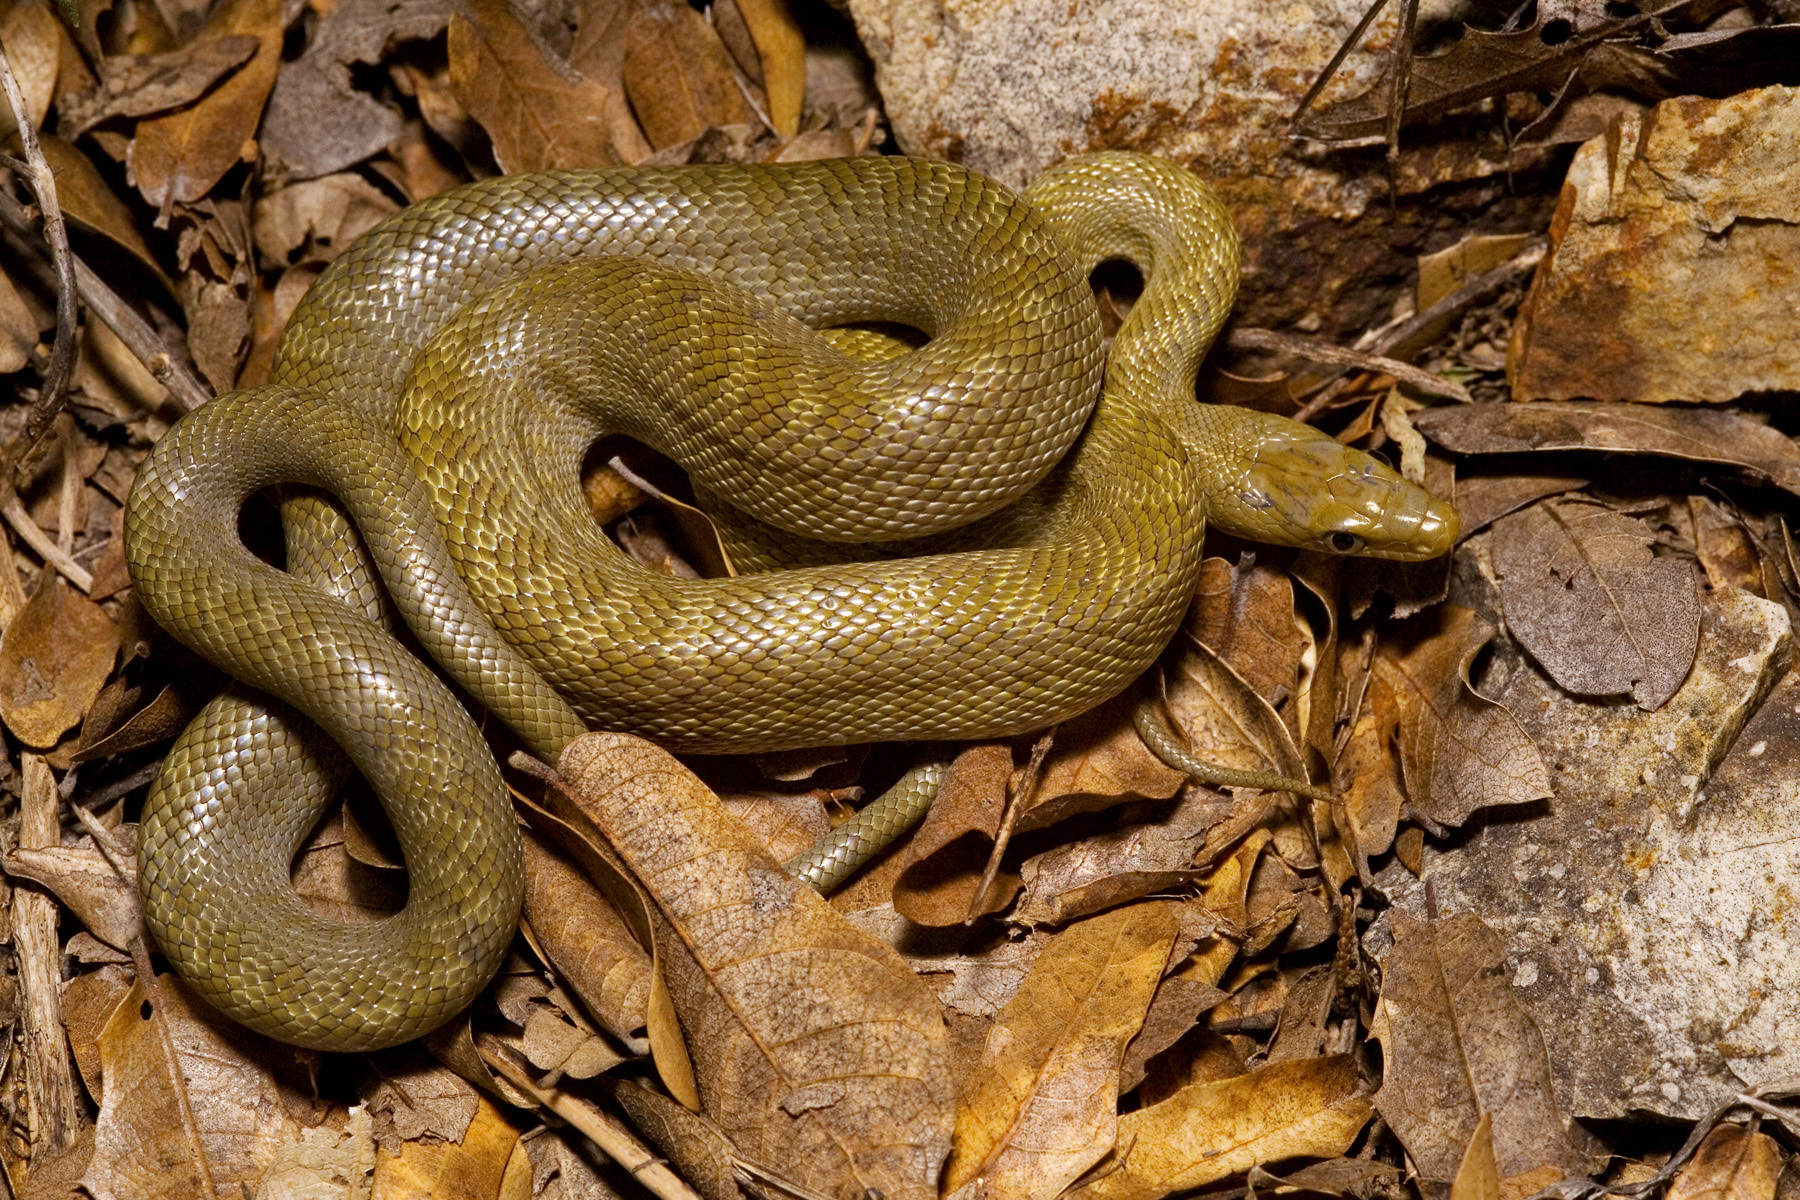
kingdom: Animalia
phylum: Chordata
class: Squamata
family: Colubridae
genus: Senticolis
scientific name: Senticolis triaspis
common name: Green rat snake
